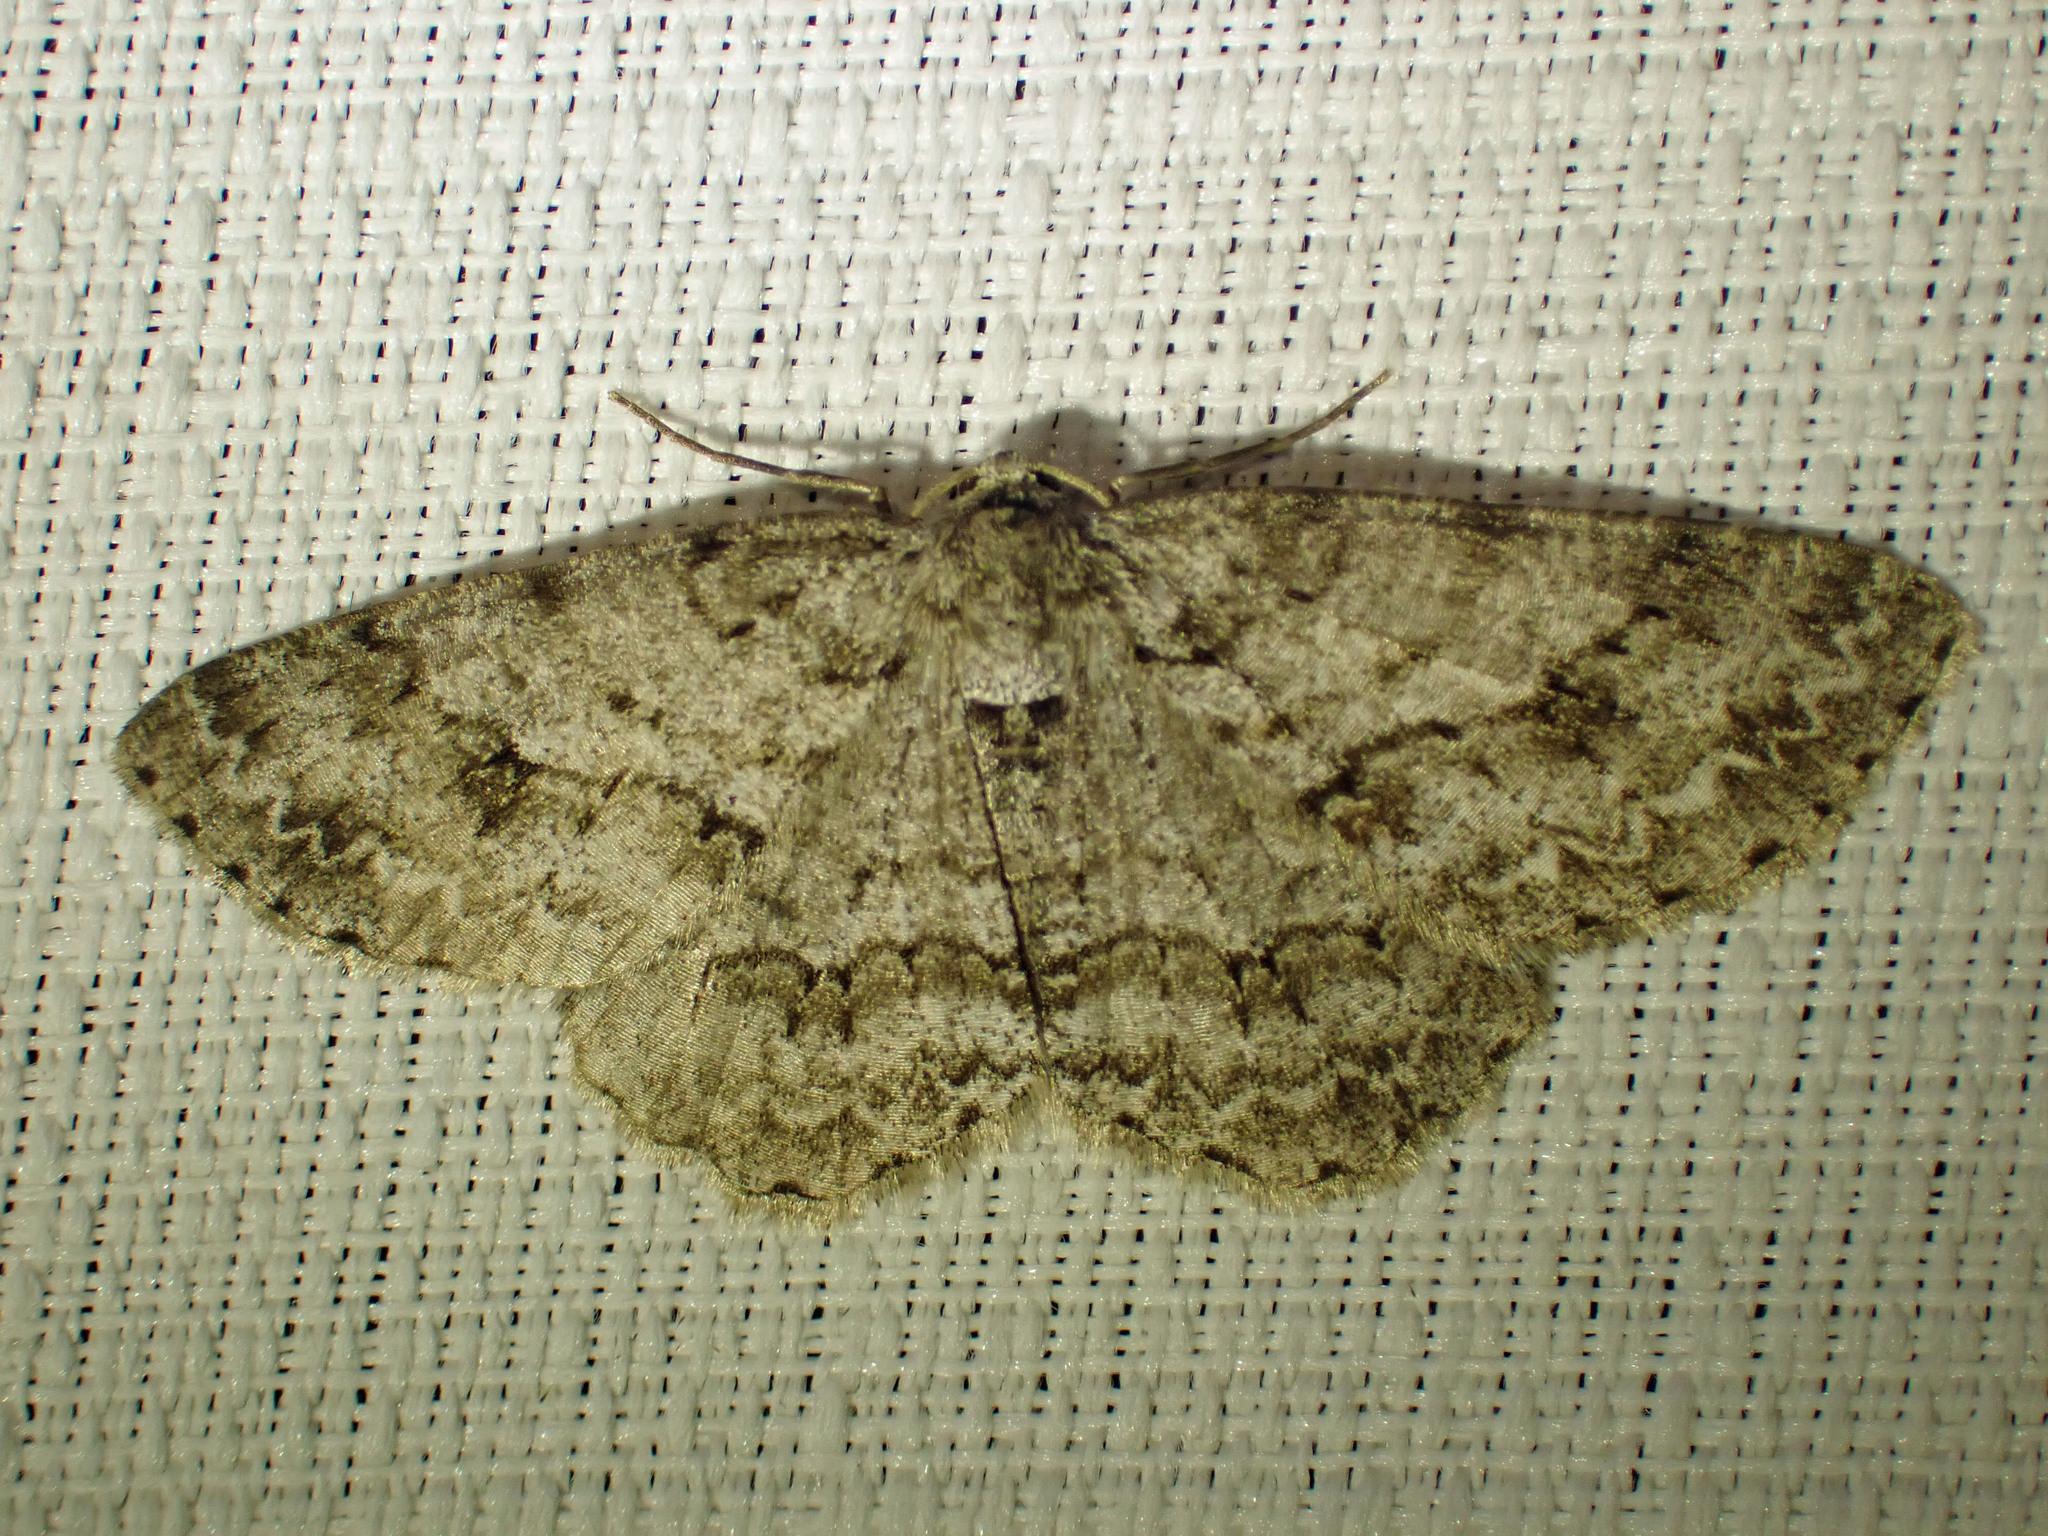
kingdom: Animalia
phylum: Arthropoda
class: Insecta
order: Lepidoptera
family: Geometridae
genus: Ectropis
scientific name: Ectropis crepuscularia
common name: Engrailed
